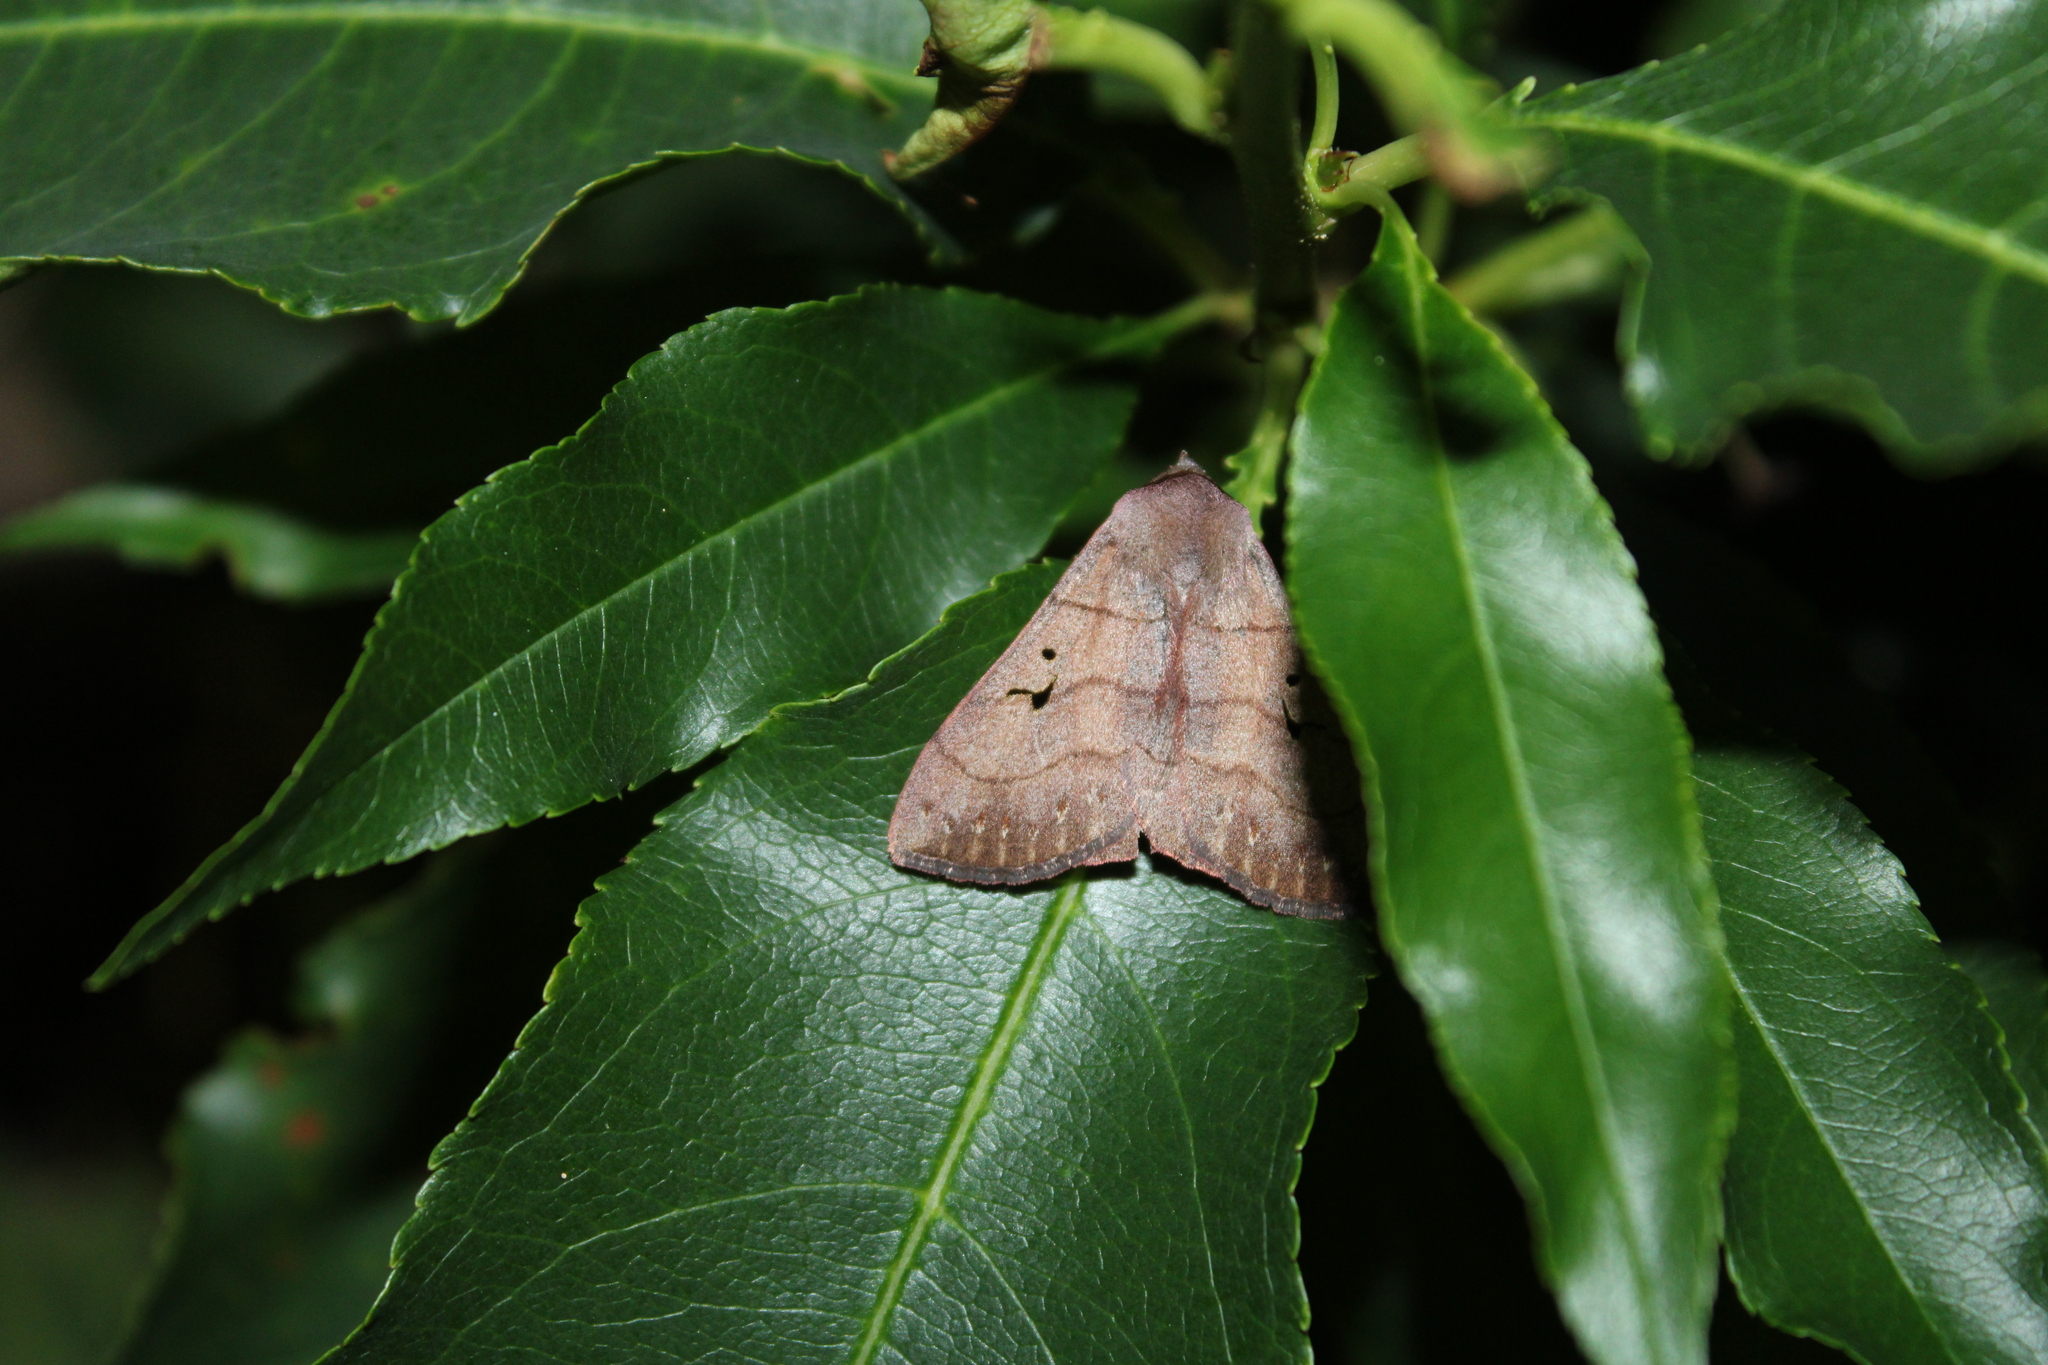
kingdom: Animalia
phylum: Arthropoda
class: Insecta
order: Lepidoptera
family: Erebidae
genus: Panopoda
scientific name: Panopoda carneicosta
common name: Brown panopoda moth
